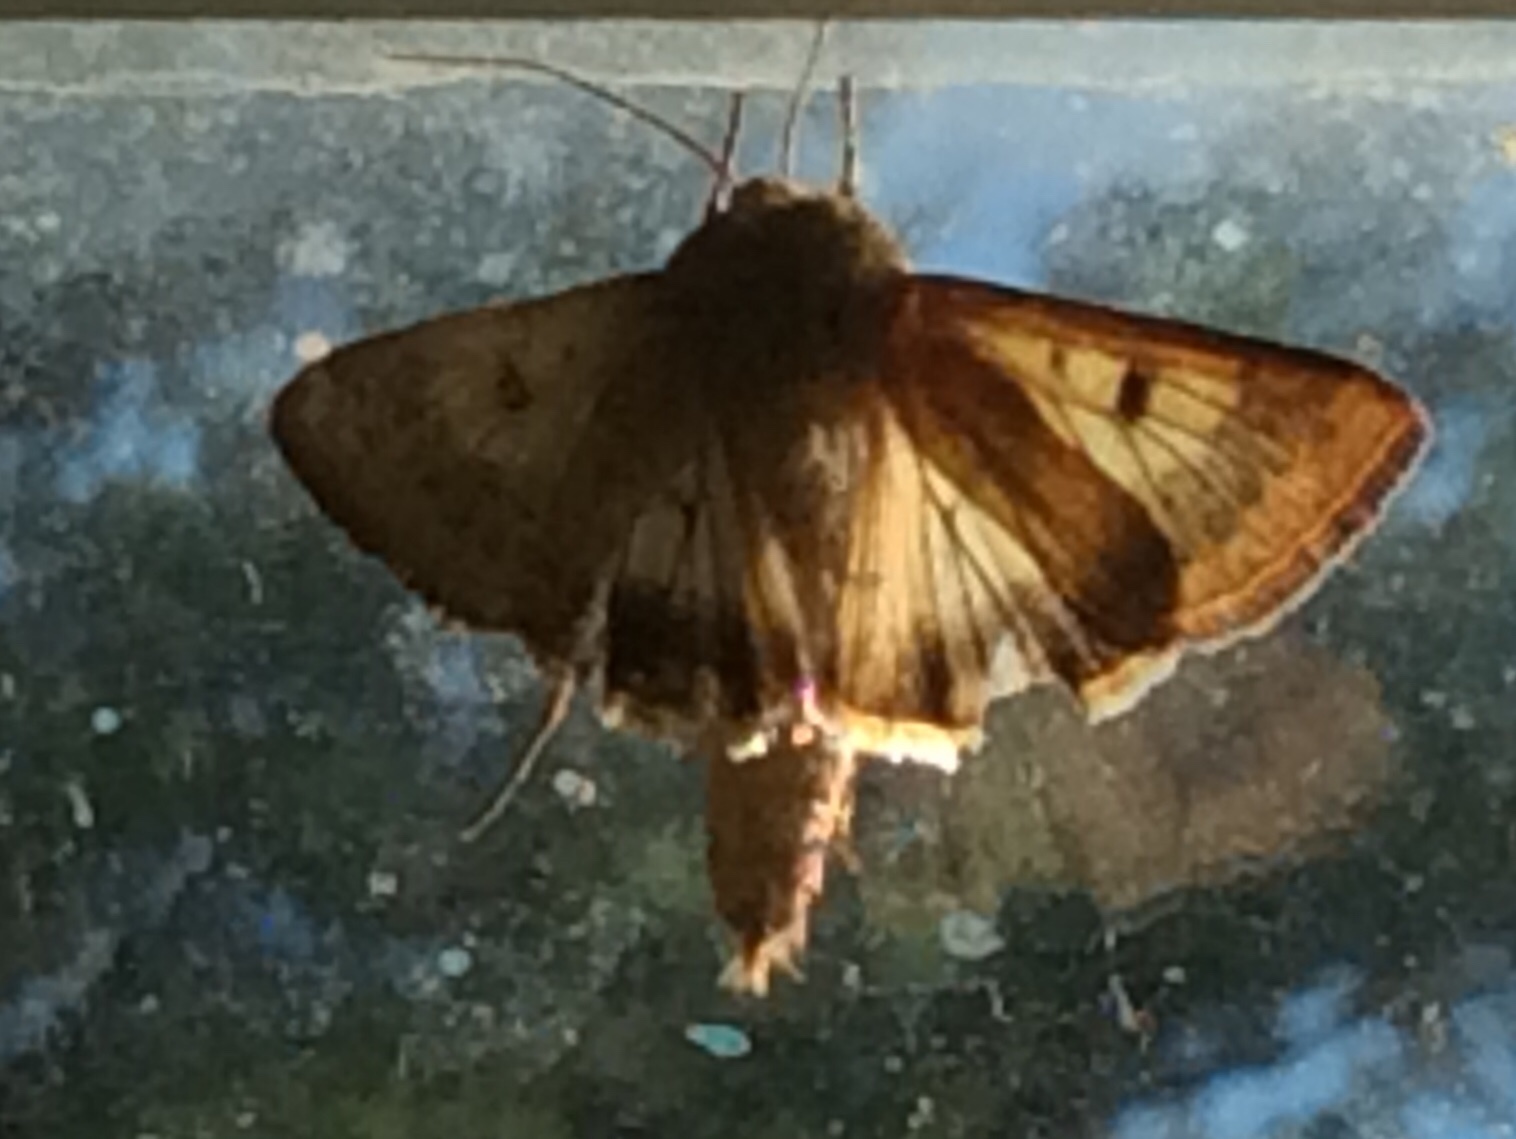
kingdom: Animalia
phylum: Arthropoda
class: Insecta
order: Lepidoptera
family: Noctuidae
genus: Helicoverpa
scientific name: Helicoverpa zea
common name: Bollworm
